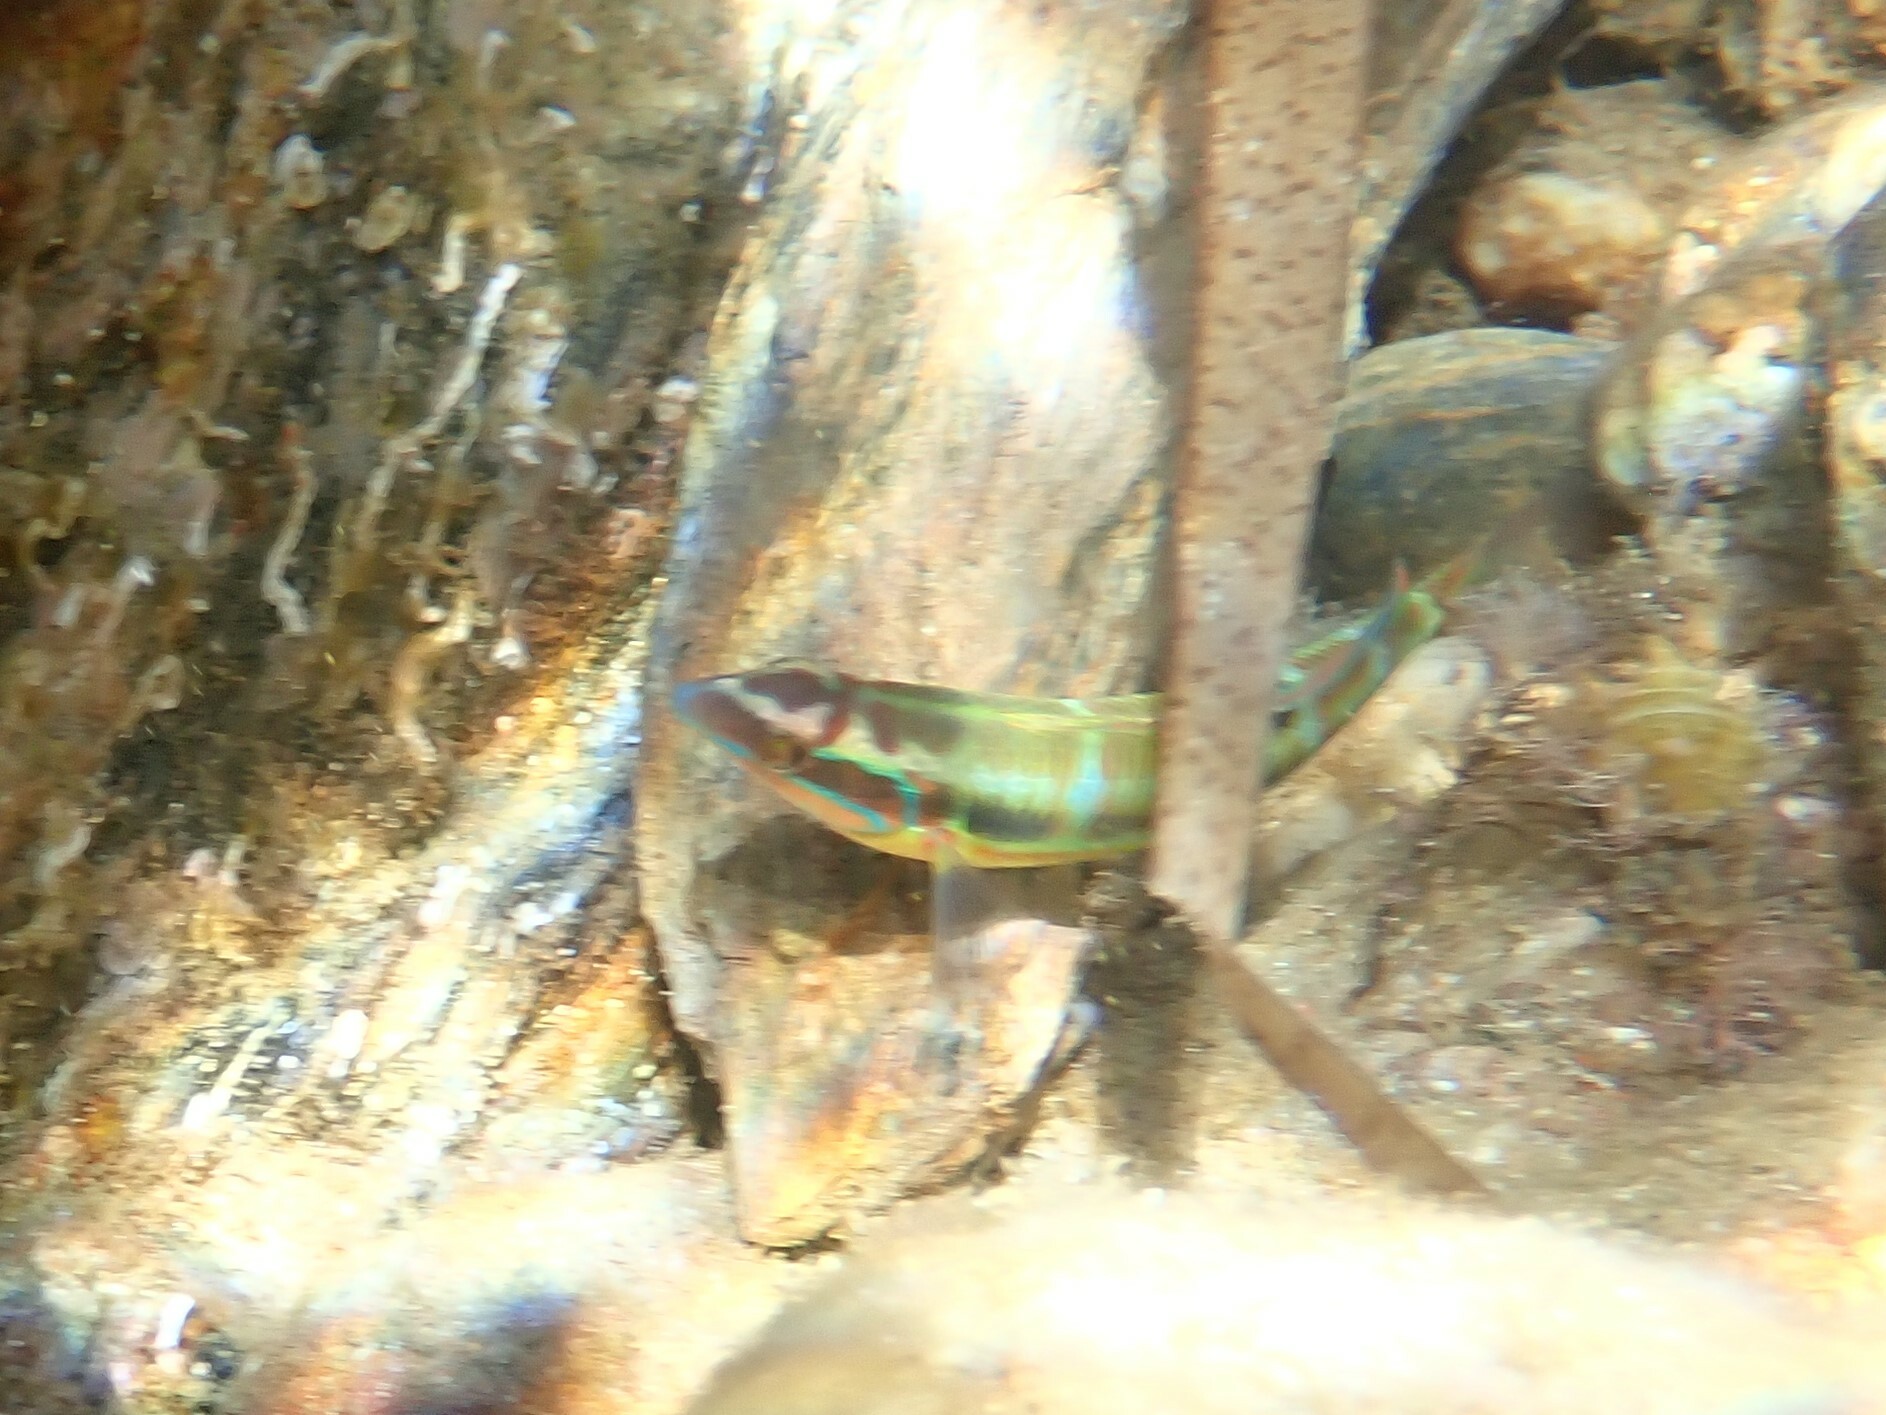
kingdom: Animalia
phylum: Chordata
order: Perciformes
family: Labridae
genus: Thalassoma
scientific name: Thalassoma pavo
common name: Ornate wrasse
